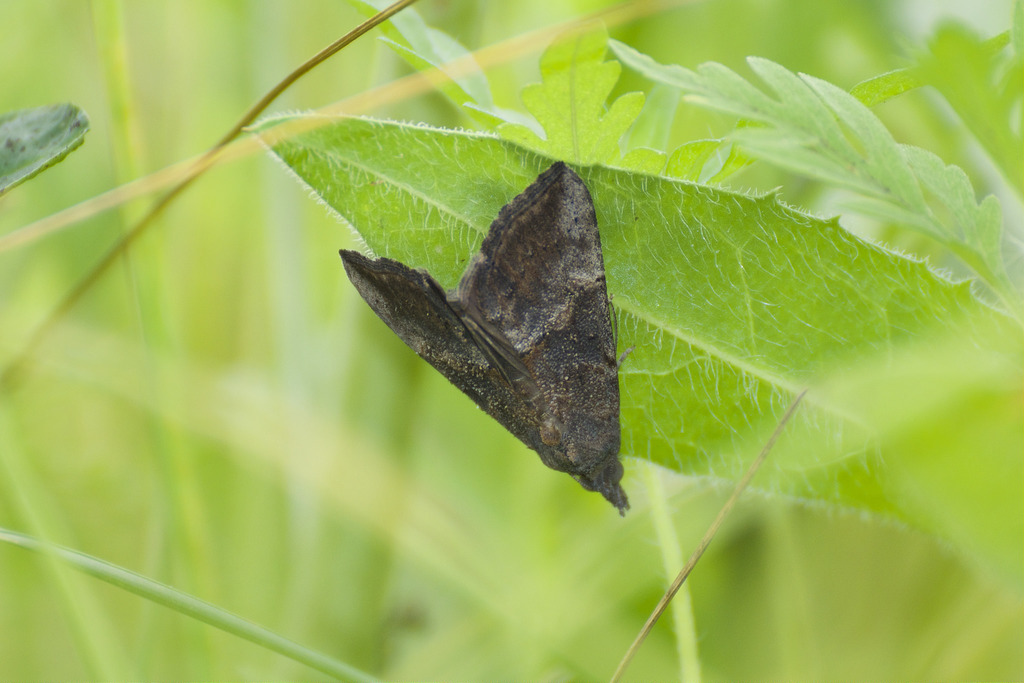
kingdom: Animalia
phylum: Arthropoda
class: Insecta
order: Lepidoptera
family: Erebidae
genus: Hypena
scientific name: Hypena scabra
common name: Green cloverworm
